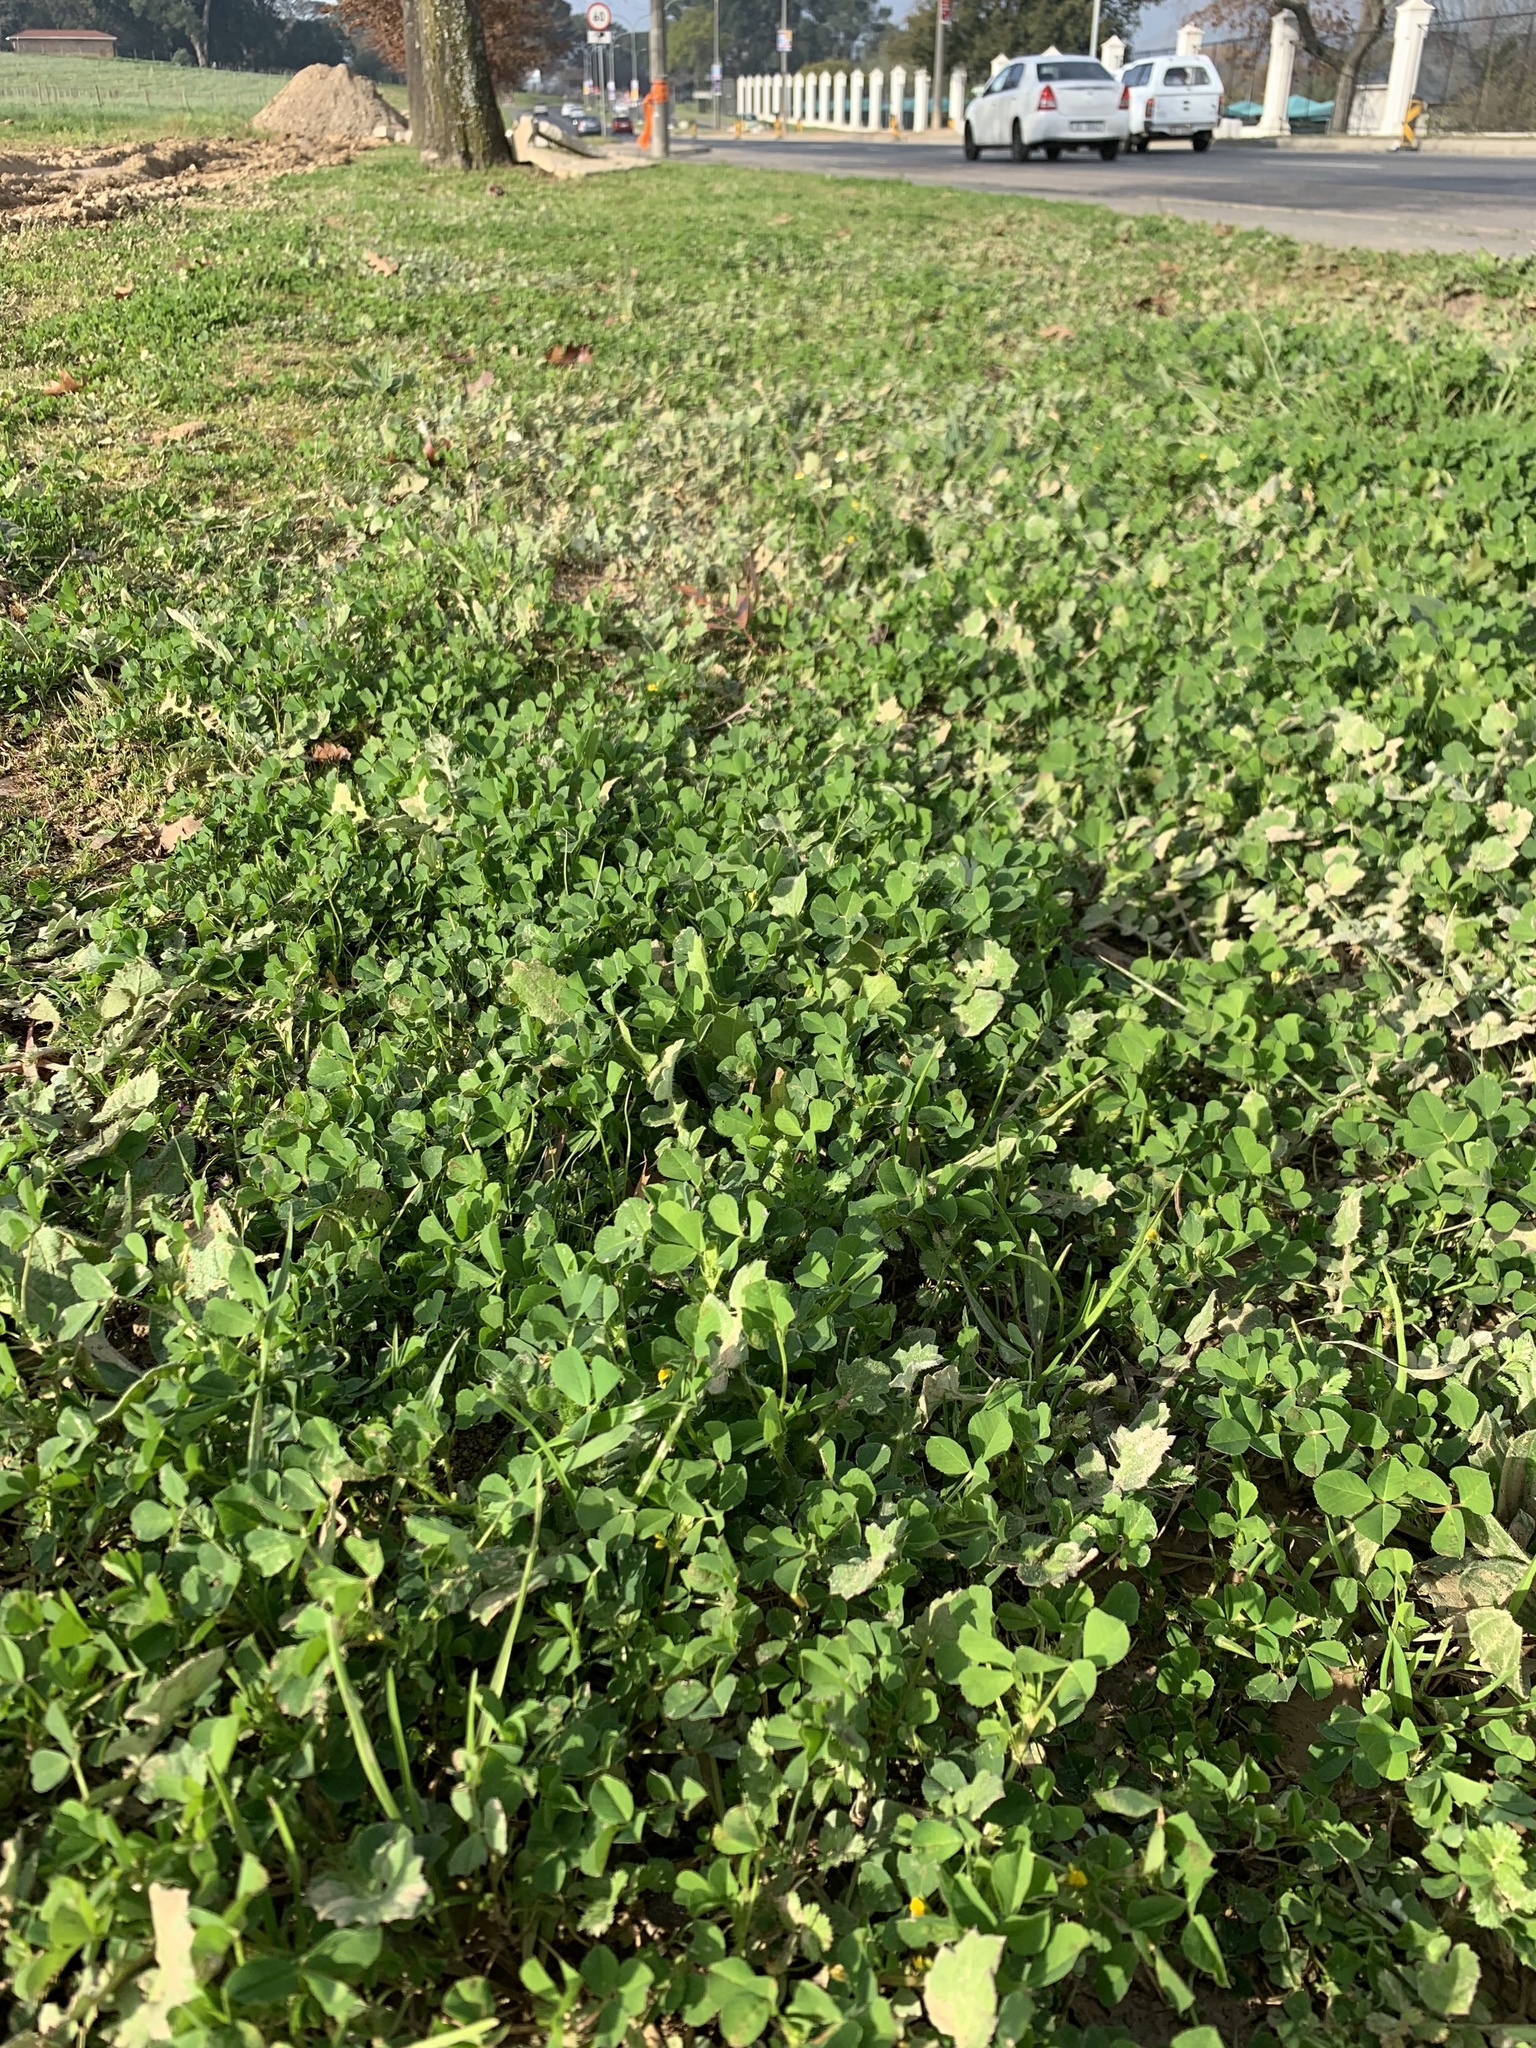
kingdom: Plantae
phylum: Tracheophyta
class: Magnoliopsida
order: Fabales
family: Fabaceae
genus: Medicago
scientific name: Medicago polymorpha
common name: Burclover
